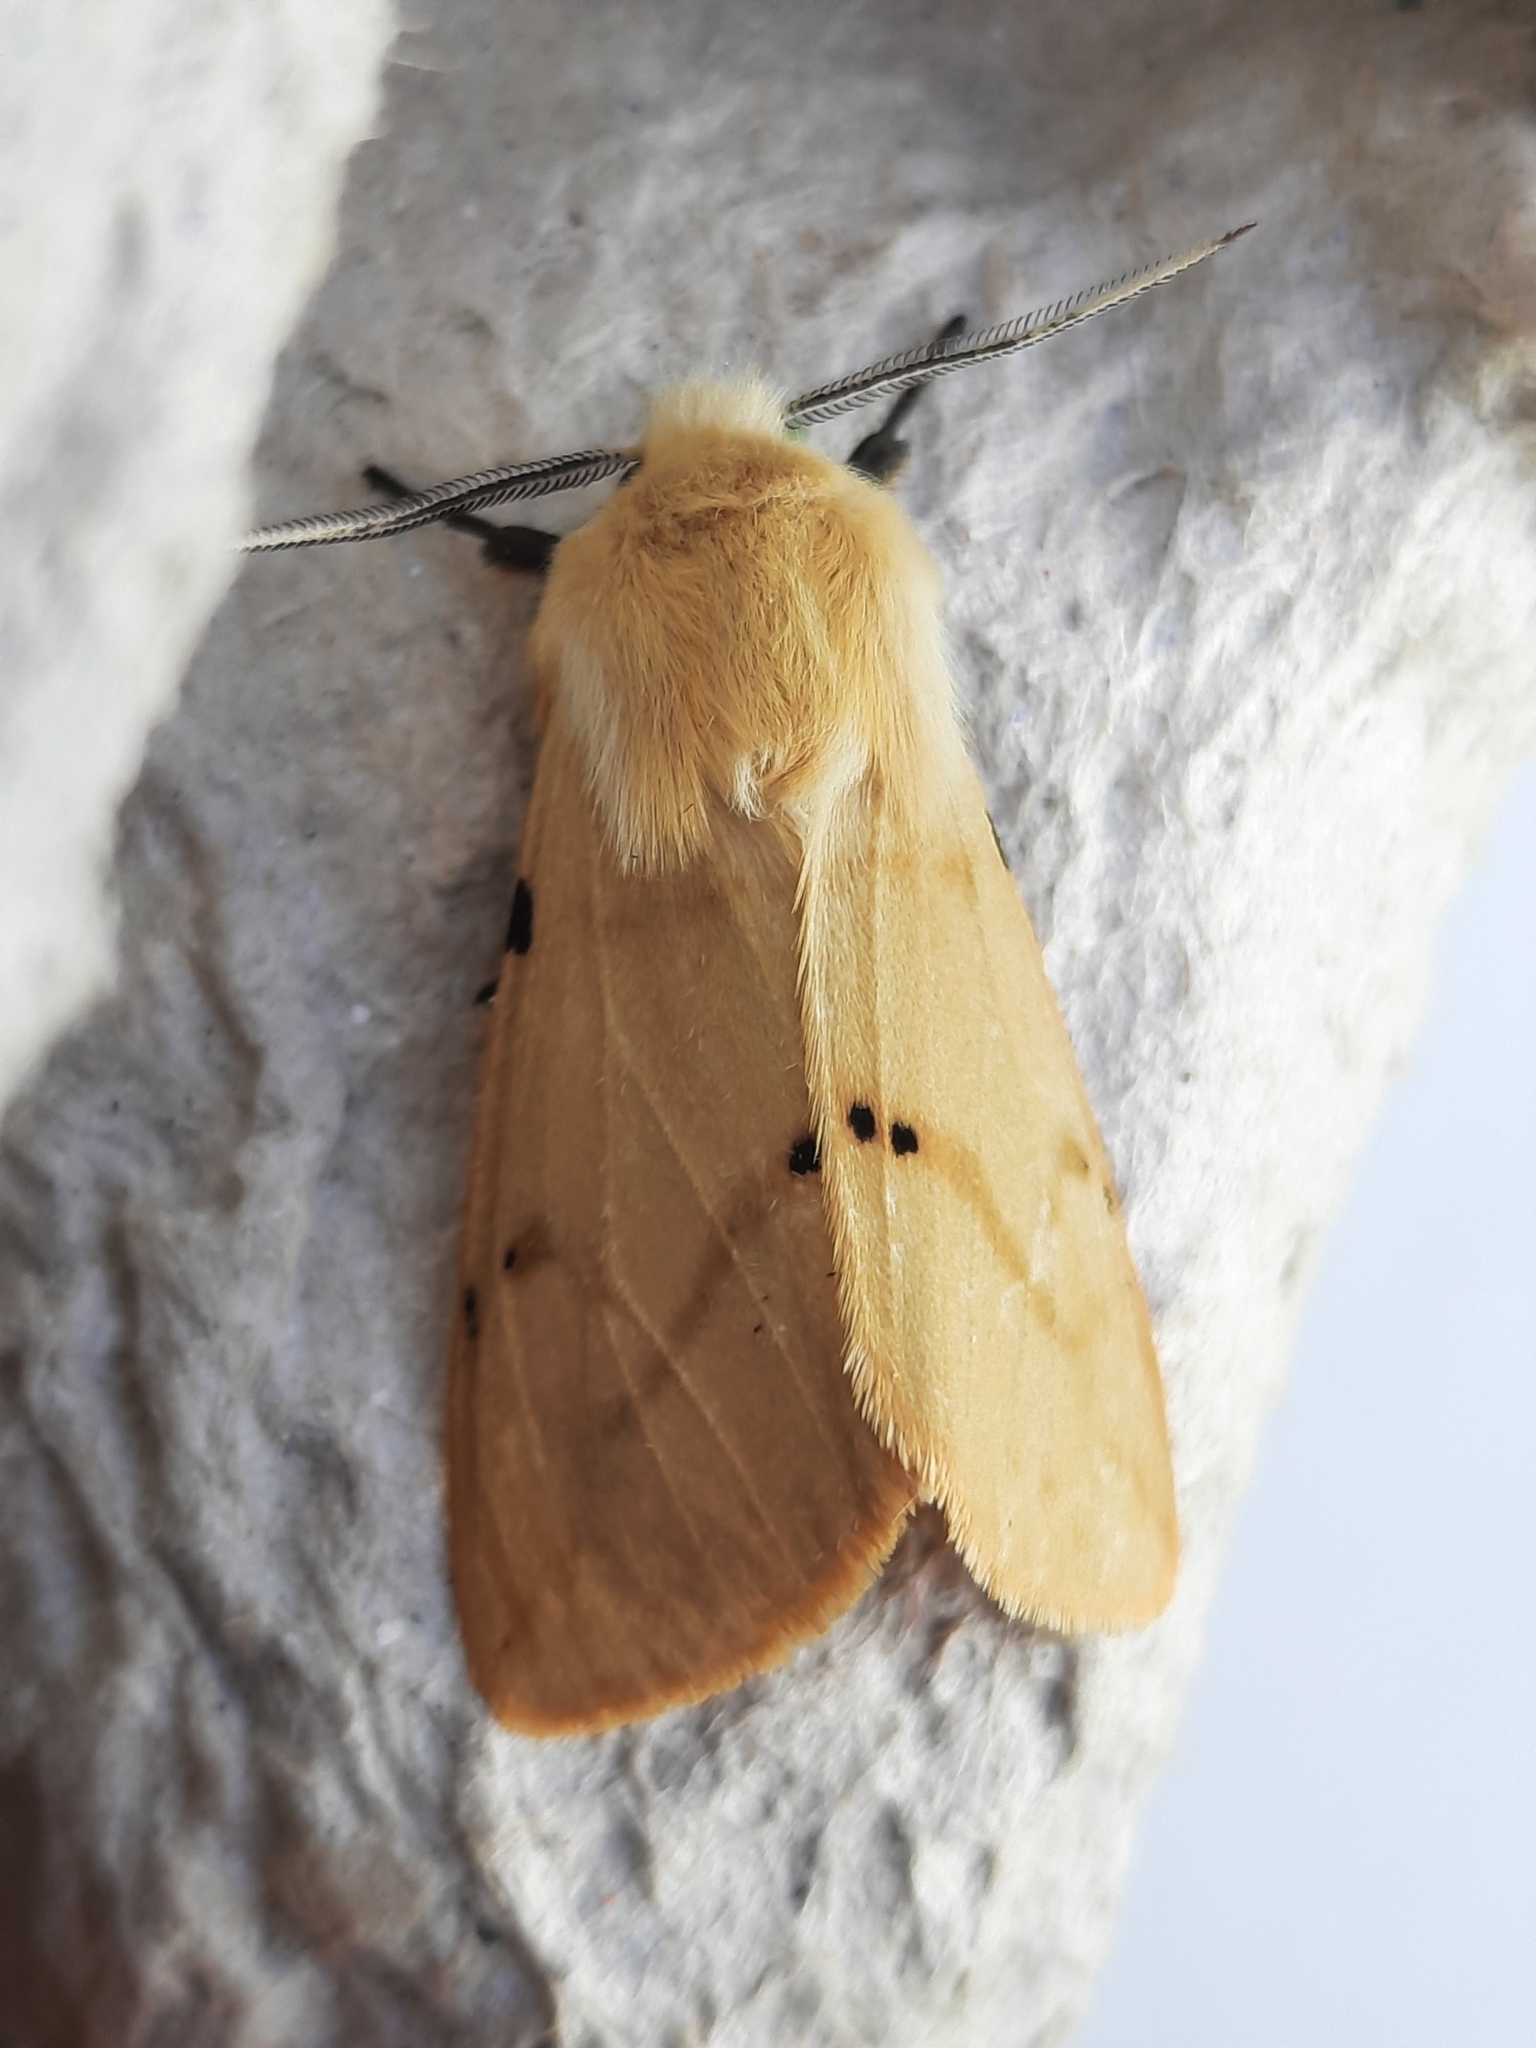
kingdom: Animalia
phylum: Arthropoda
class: Insecta
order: Lepidoptera
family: Erebidae
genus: Spilarctia
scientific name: Spilarctia lutea
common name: Buff ermine
